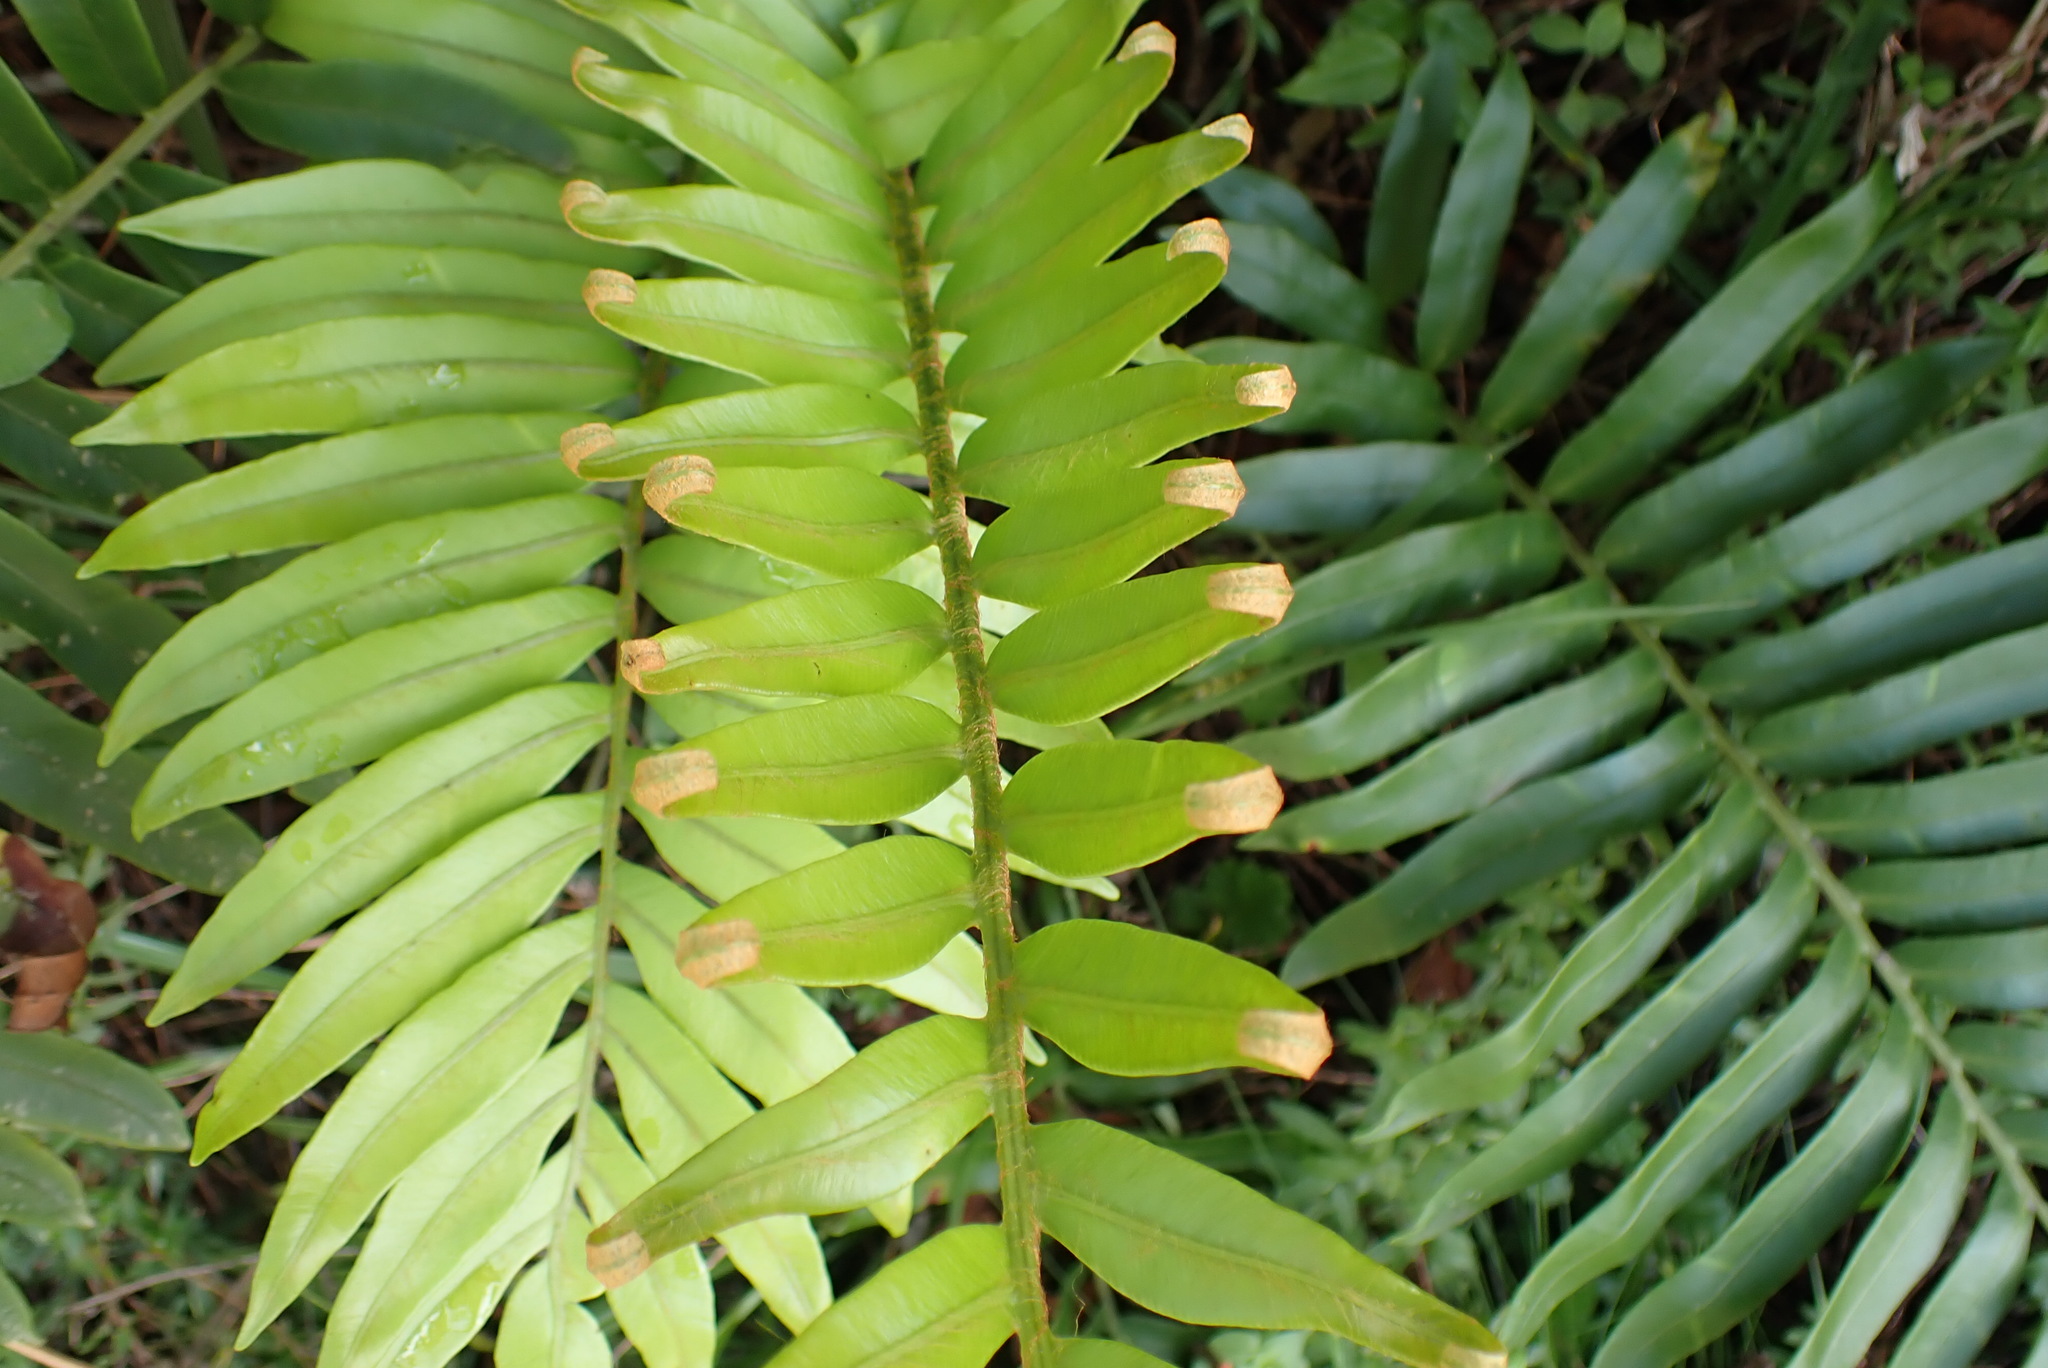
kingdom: Plantae
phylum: Tracheophyta
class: Polypodiopsida
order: Polypodiales
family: Blechnaceae
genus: Lomariocycas
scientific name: Lomariocycas tabularis
